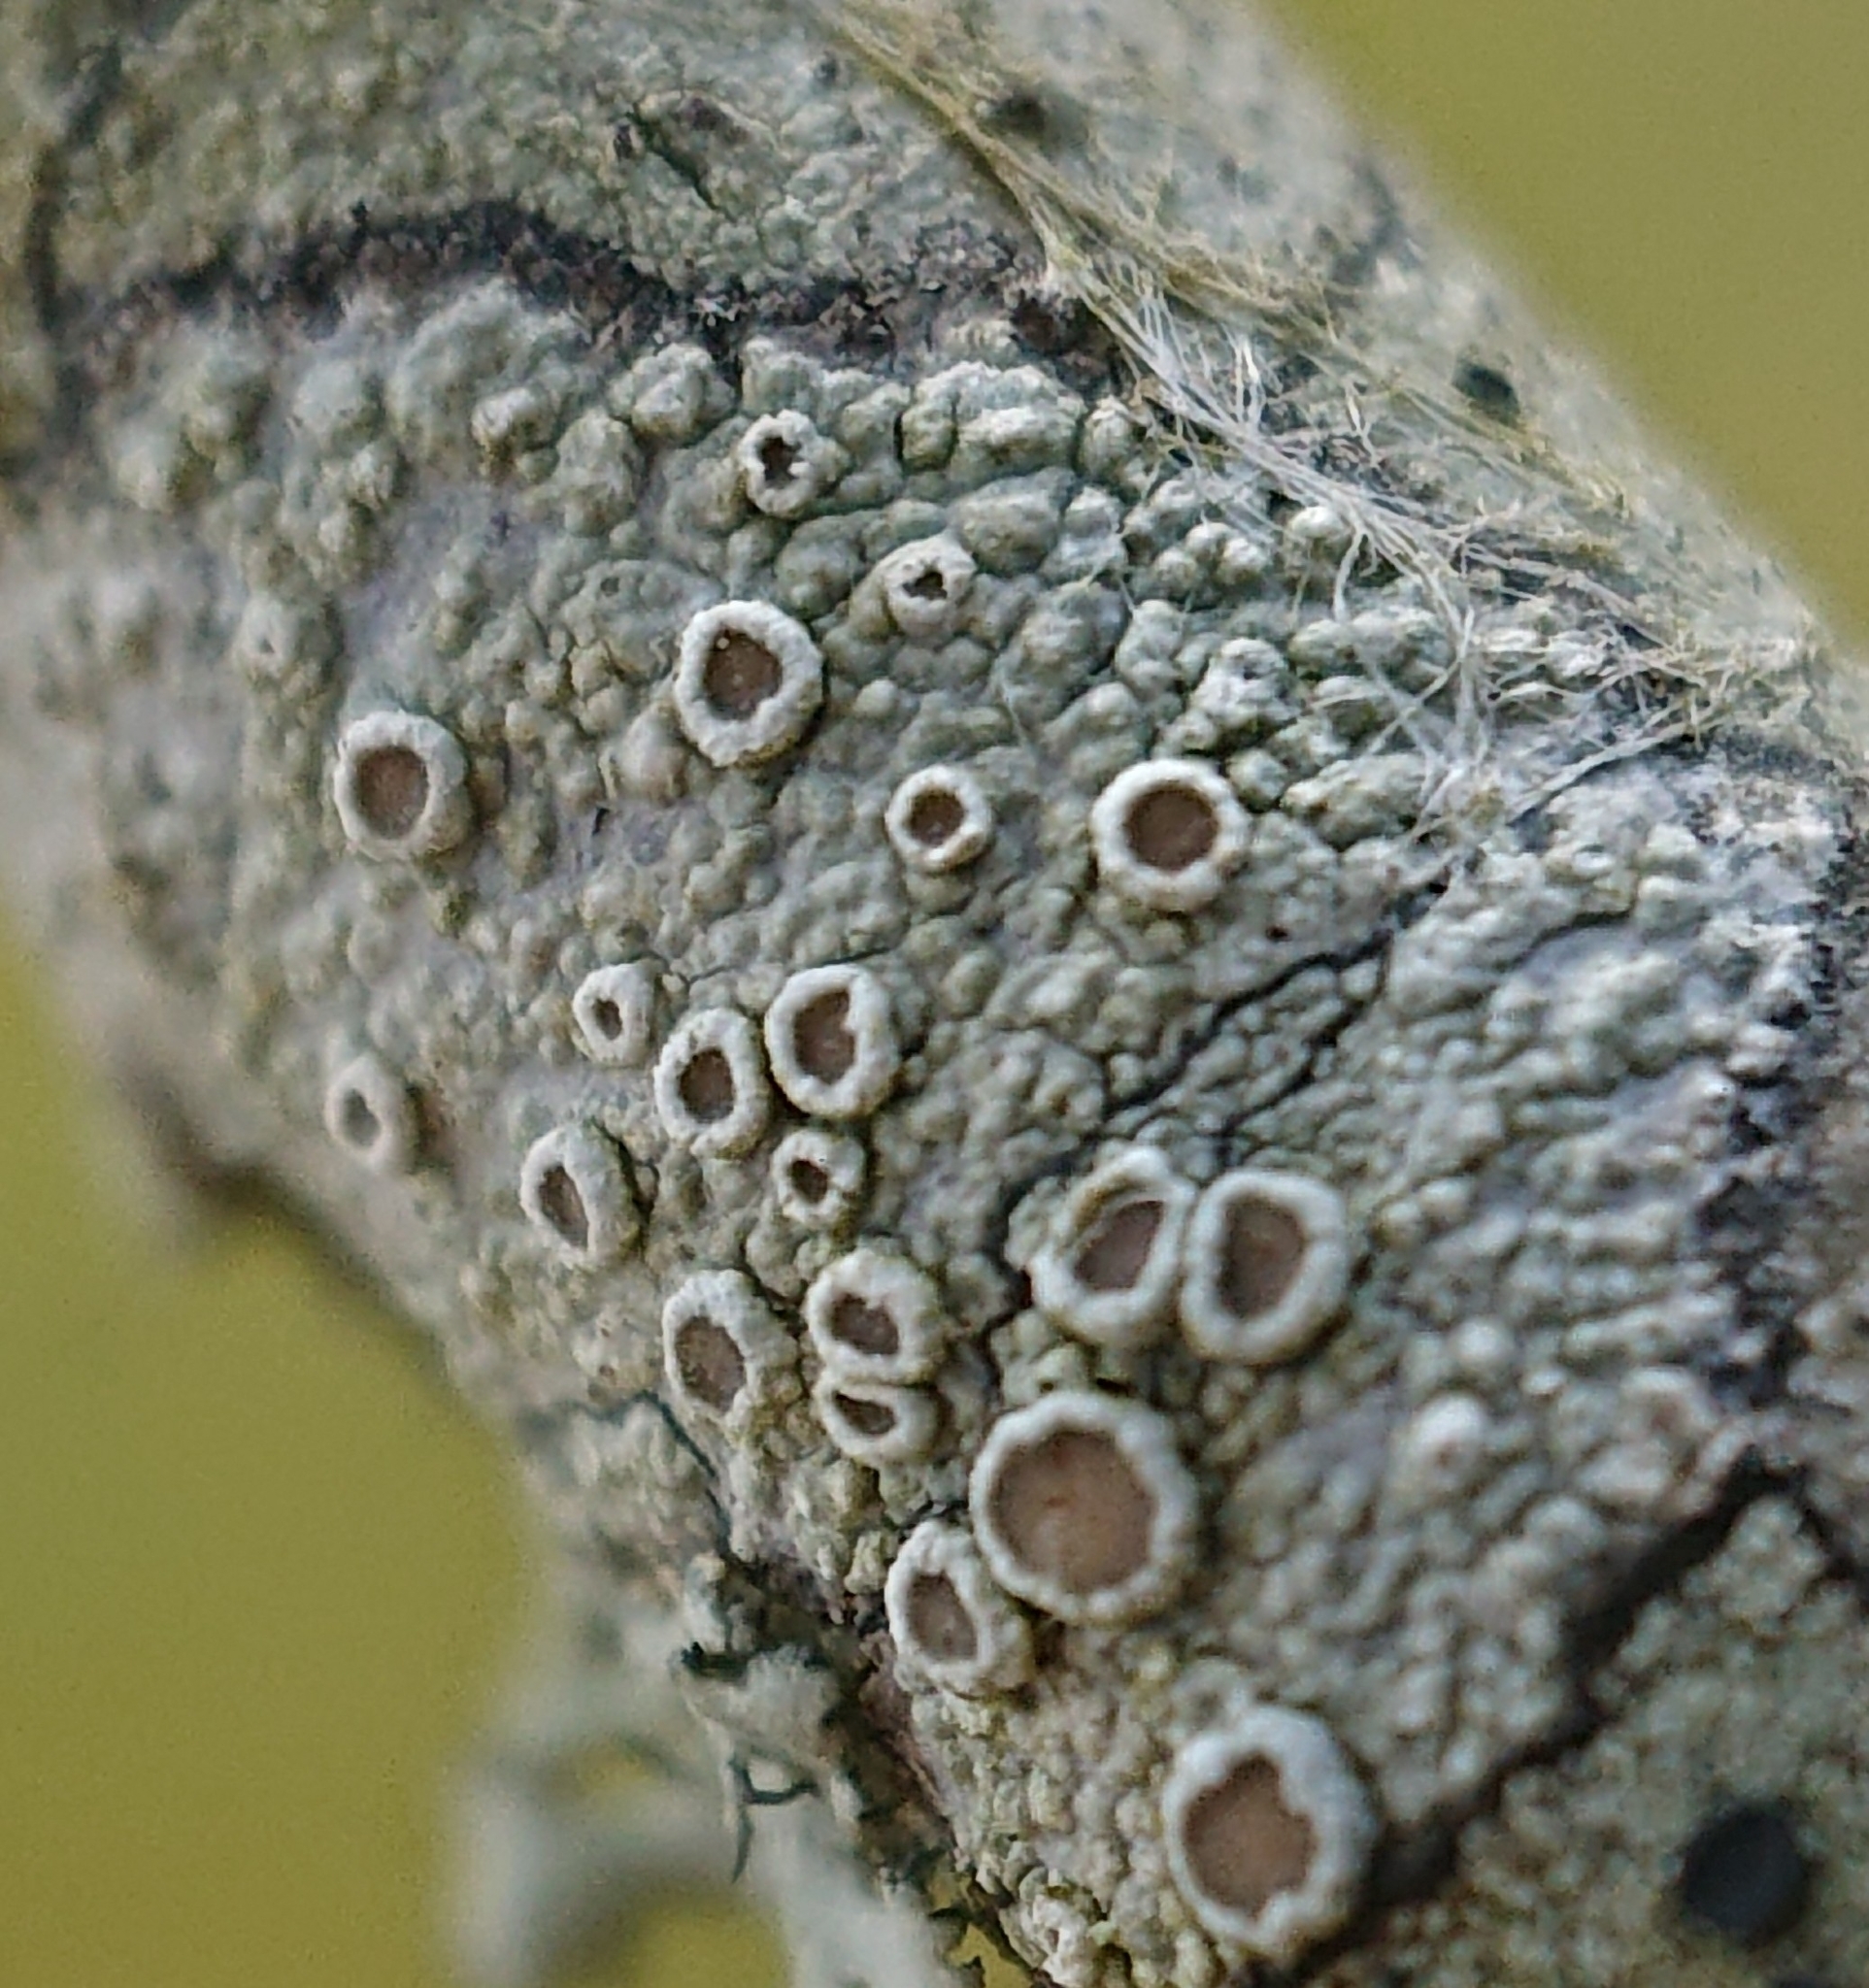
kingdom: Fungi
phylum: Ascomycota
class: Lecanoromycetes
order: Lecanorales
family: Lecanoraceae
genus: Lecanora
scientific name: Lecanora chlarotera
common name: Brown rim-lichen
